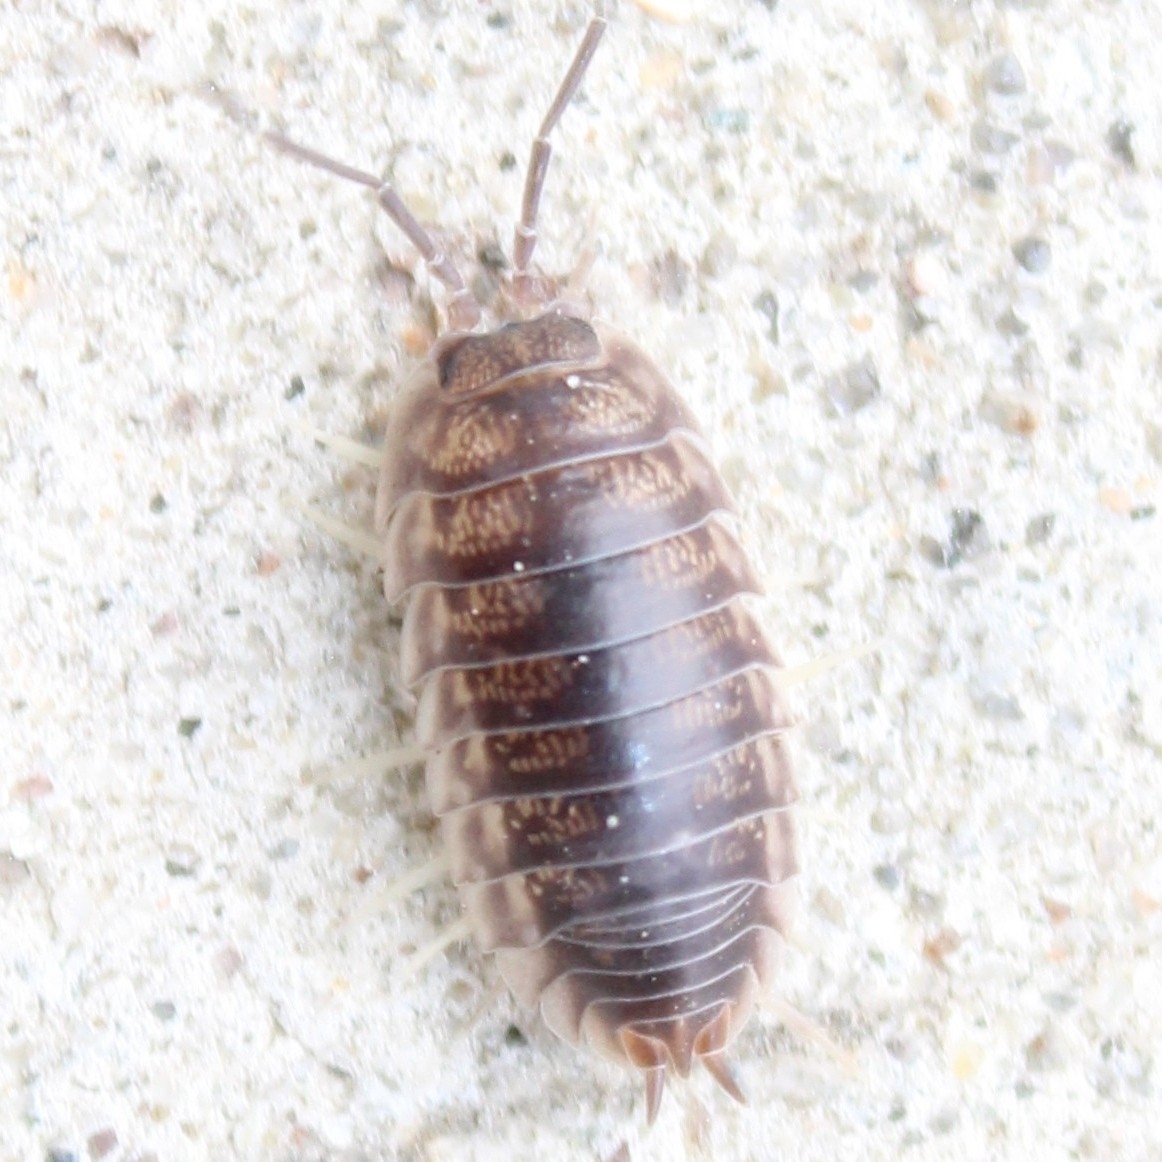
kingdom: Animalia
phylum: Arthropoda
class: Malacostraca
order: Isopoda
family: Cylisticidae
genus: Cylisticus
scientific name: Cylisticus convexus
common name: Curly woodlouse
